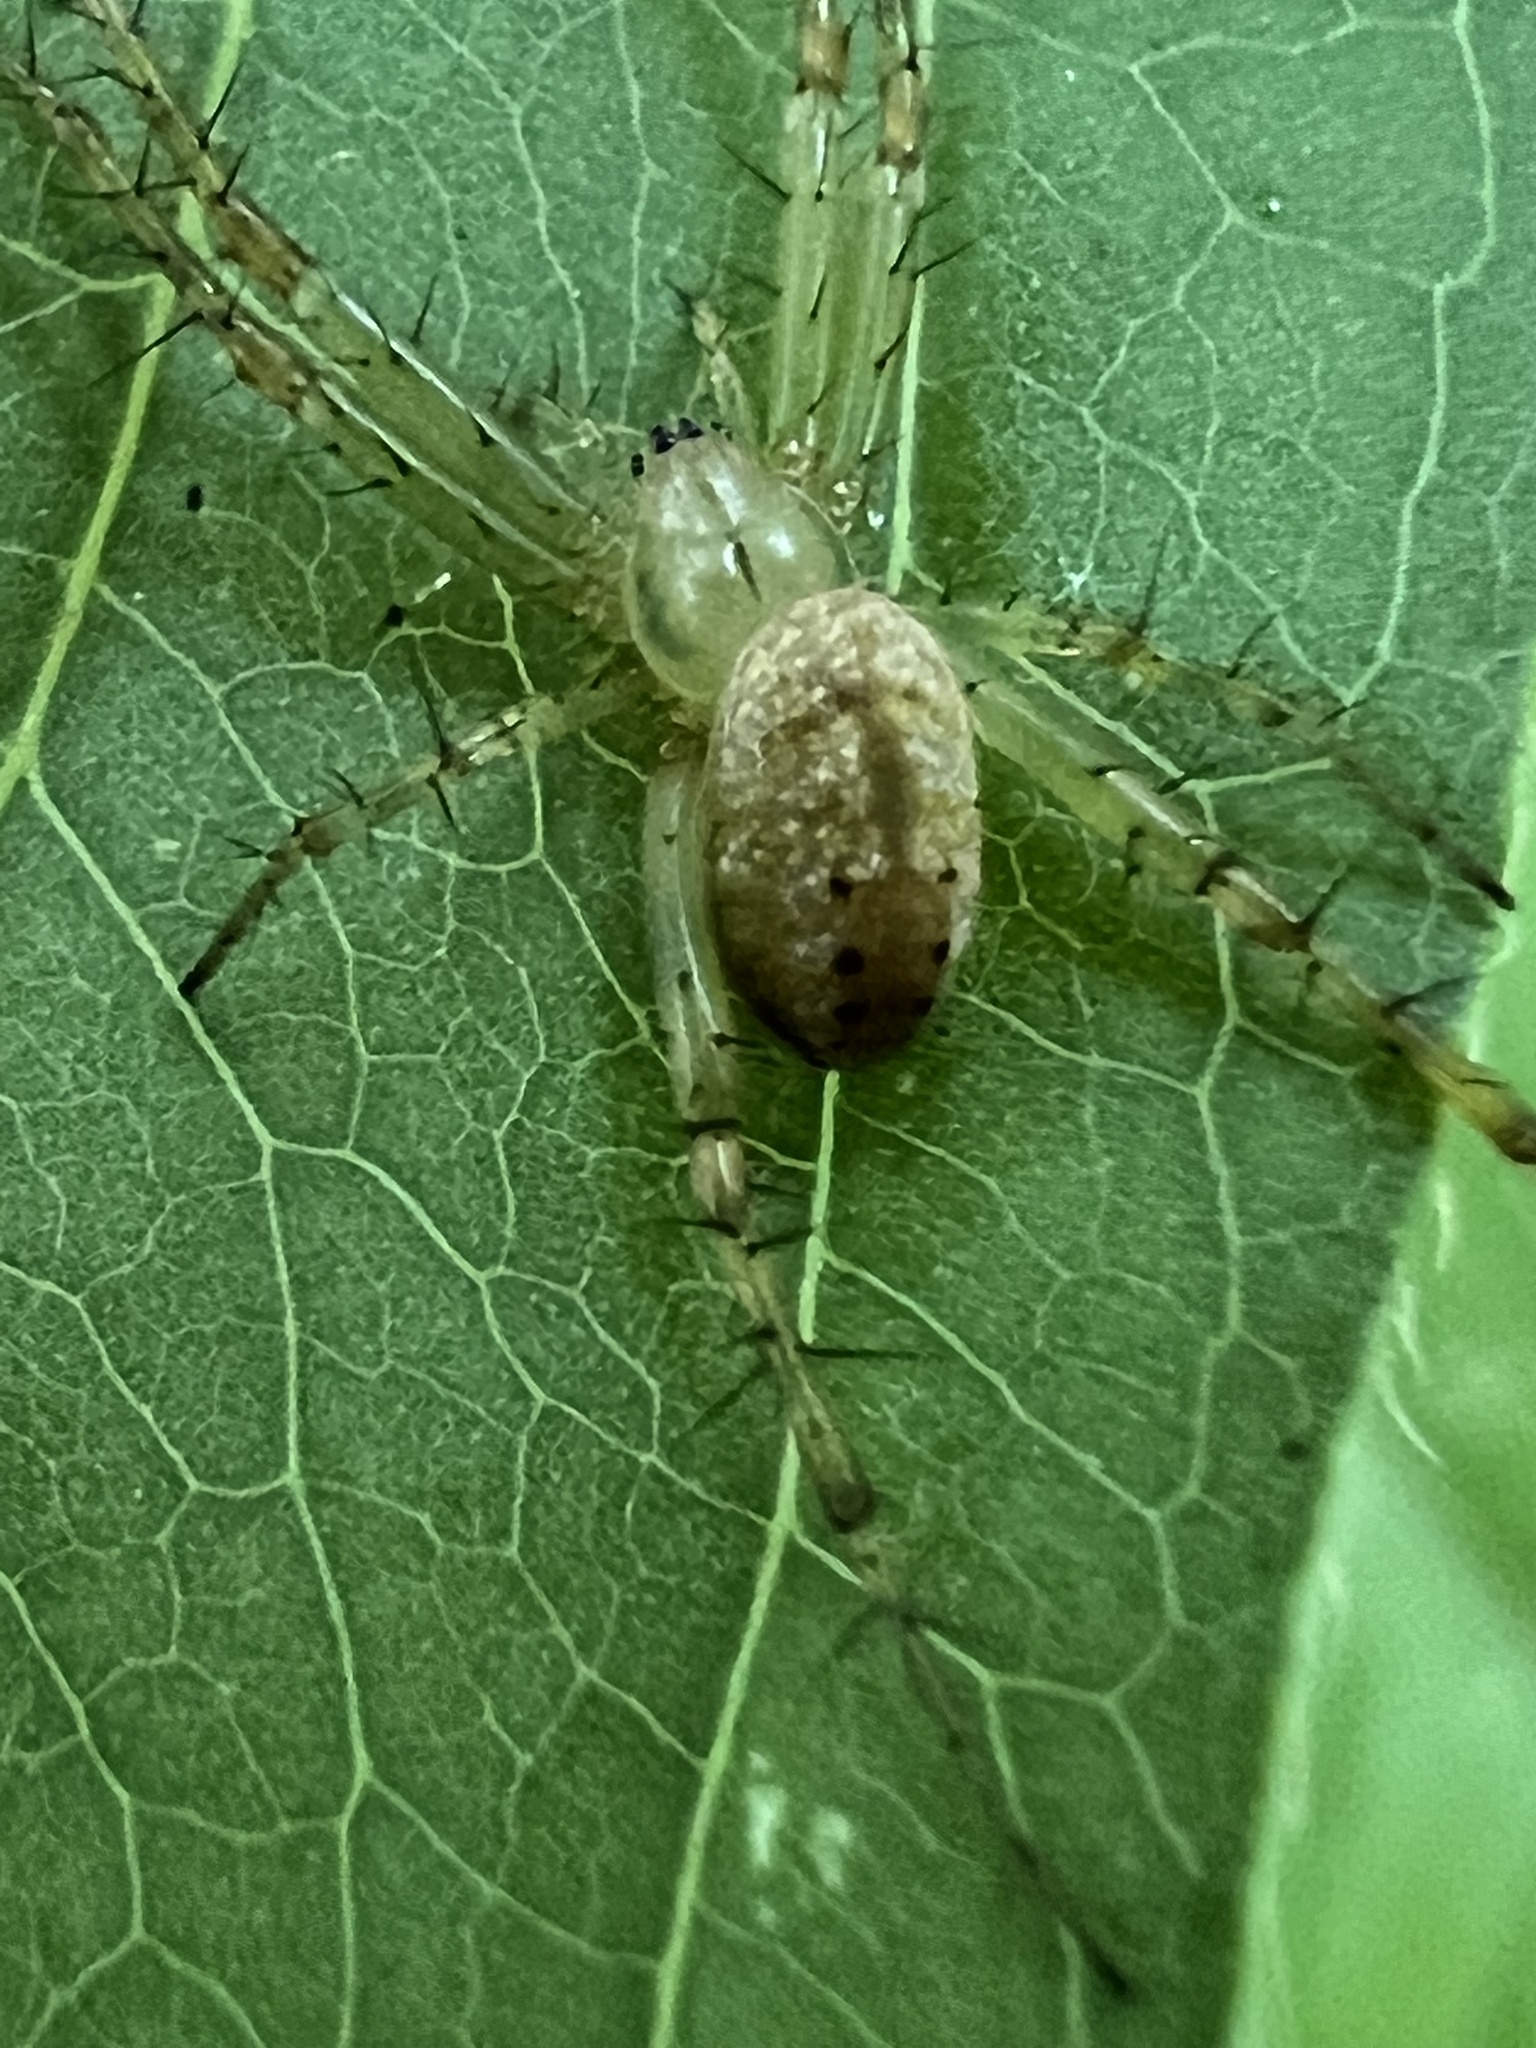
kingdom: Animalia
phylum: Arthropoda
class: Arachnida
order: Araneae
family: Araneidae
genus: Mangora
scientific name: Mangora maculata
